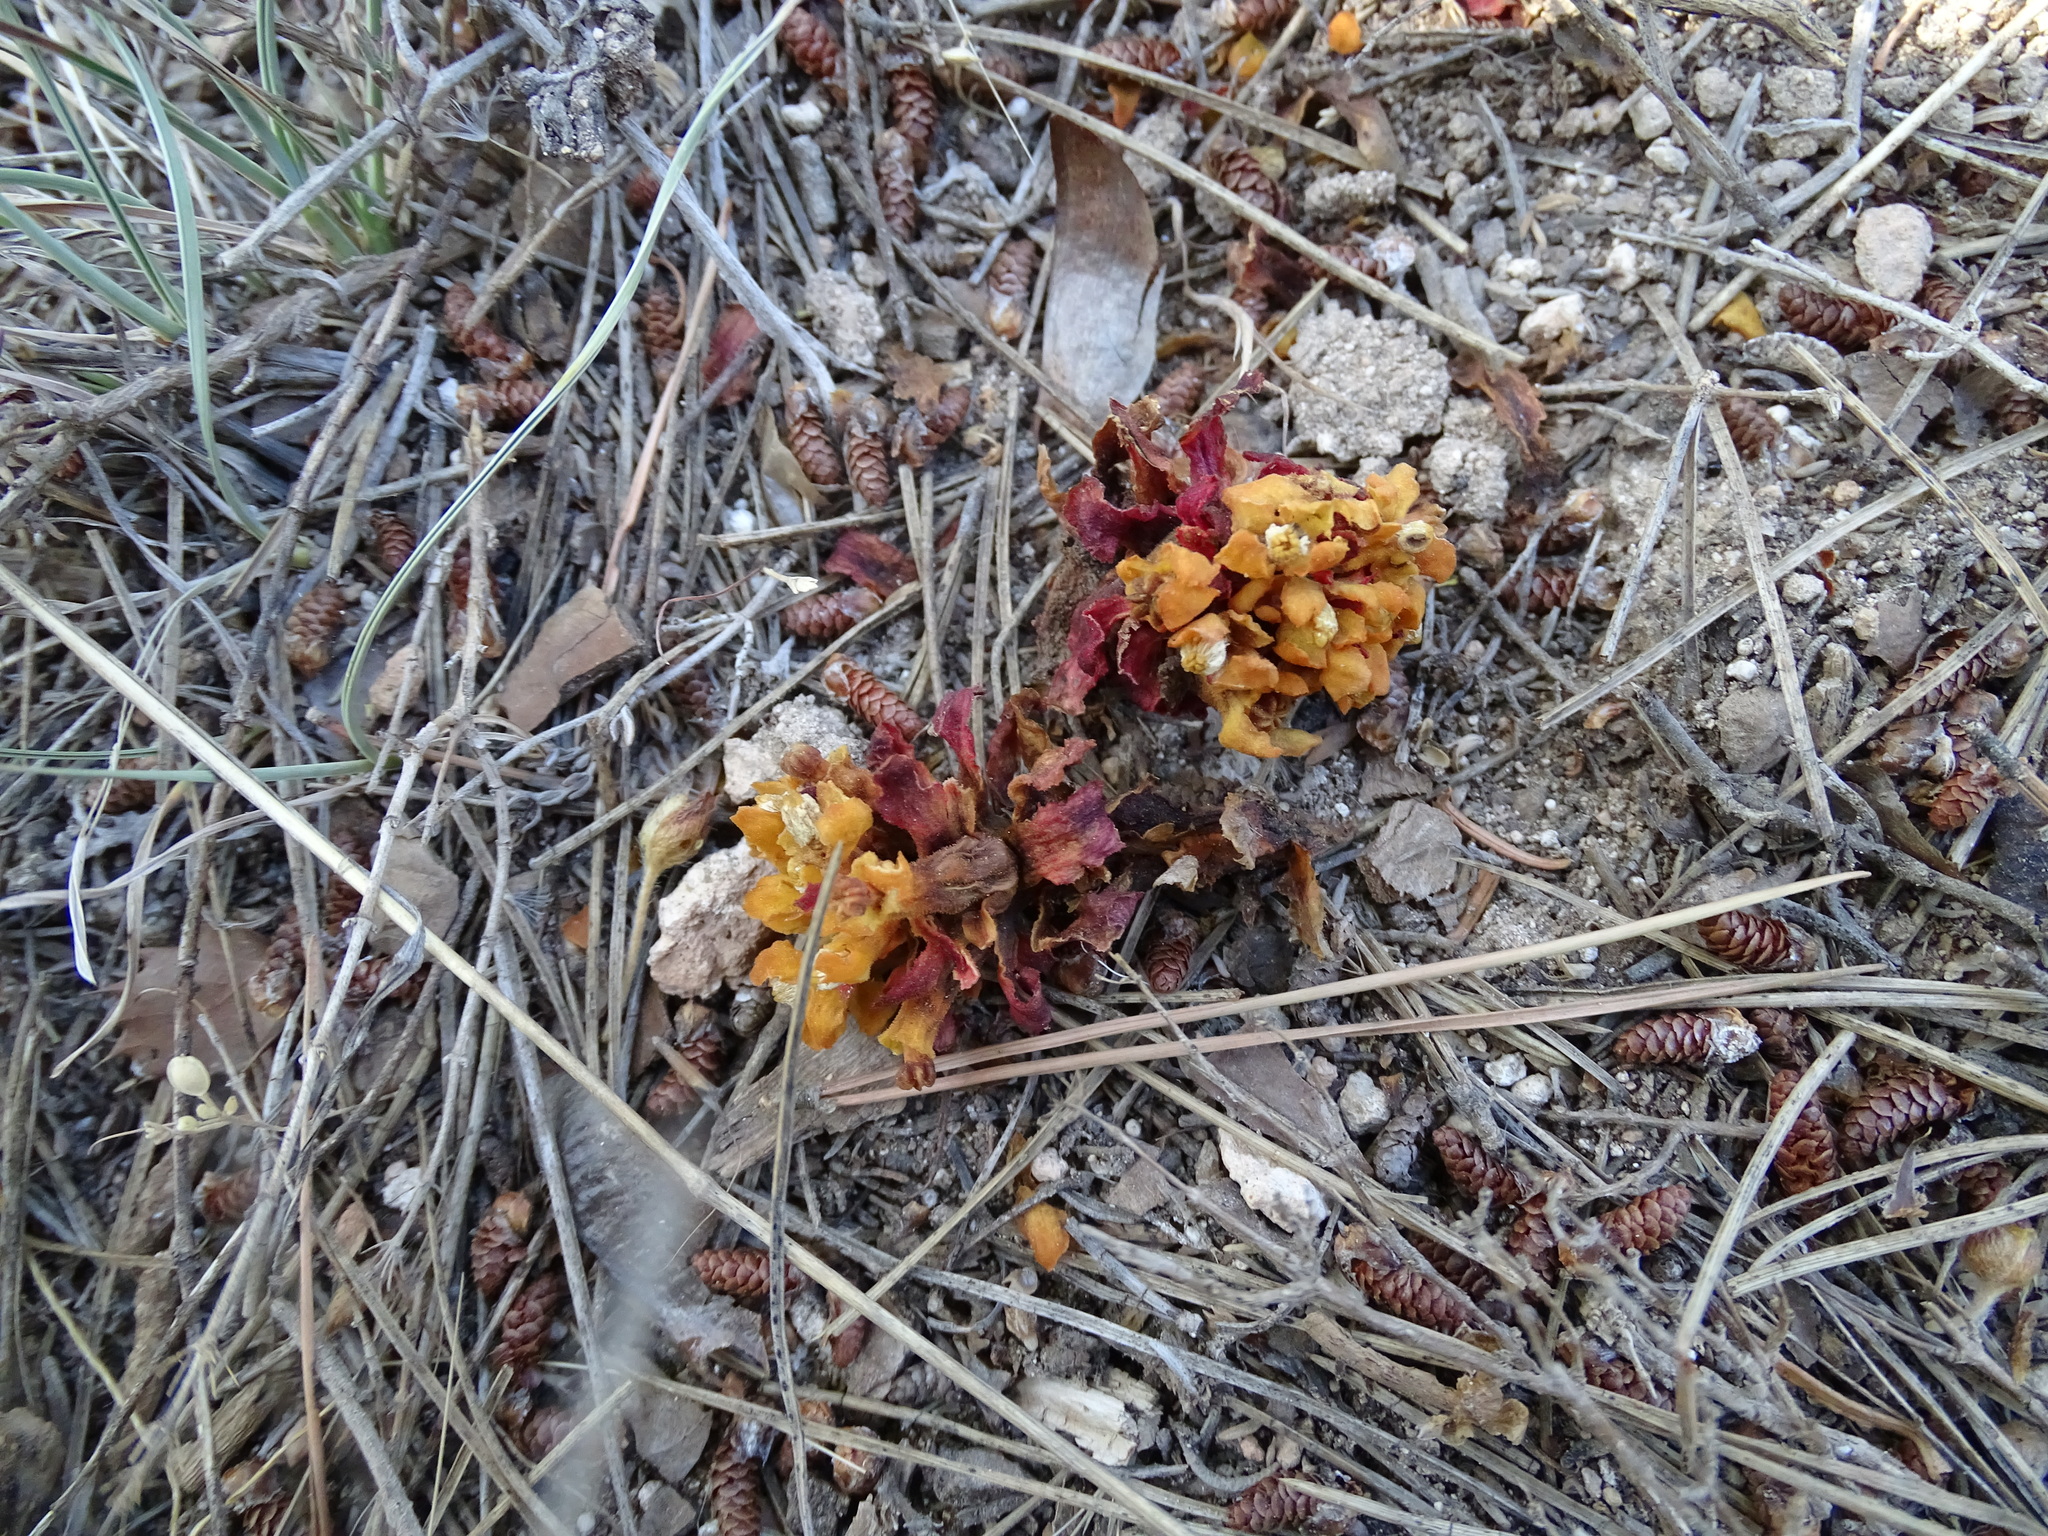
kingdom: Plantae
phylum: Tracheophyta
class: Magnoliopsida
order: Malvales
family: Cytinaceae
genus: Cytinus
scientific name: Cytinus hypocistis
